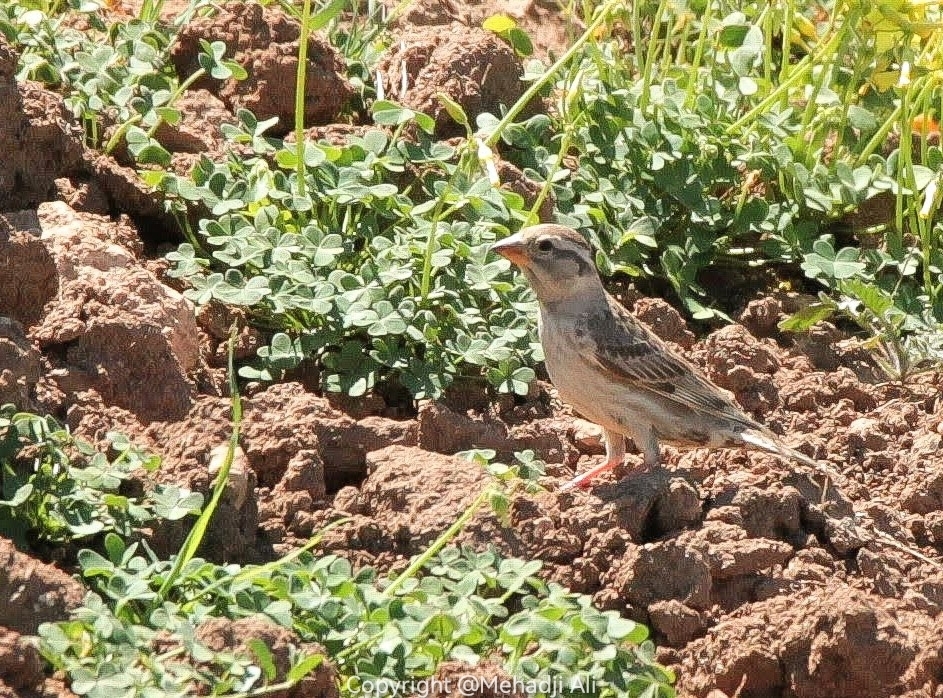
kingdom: Animalia
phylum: Chordata
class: Aves
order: Passeriformes
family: Passeridae
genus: Petronia
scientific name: Petronia petronia
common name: Rock sparrow
